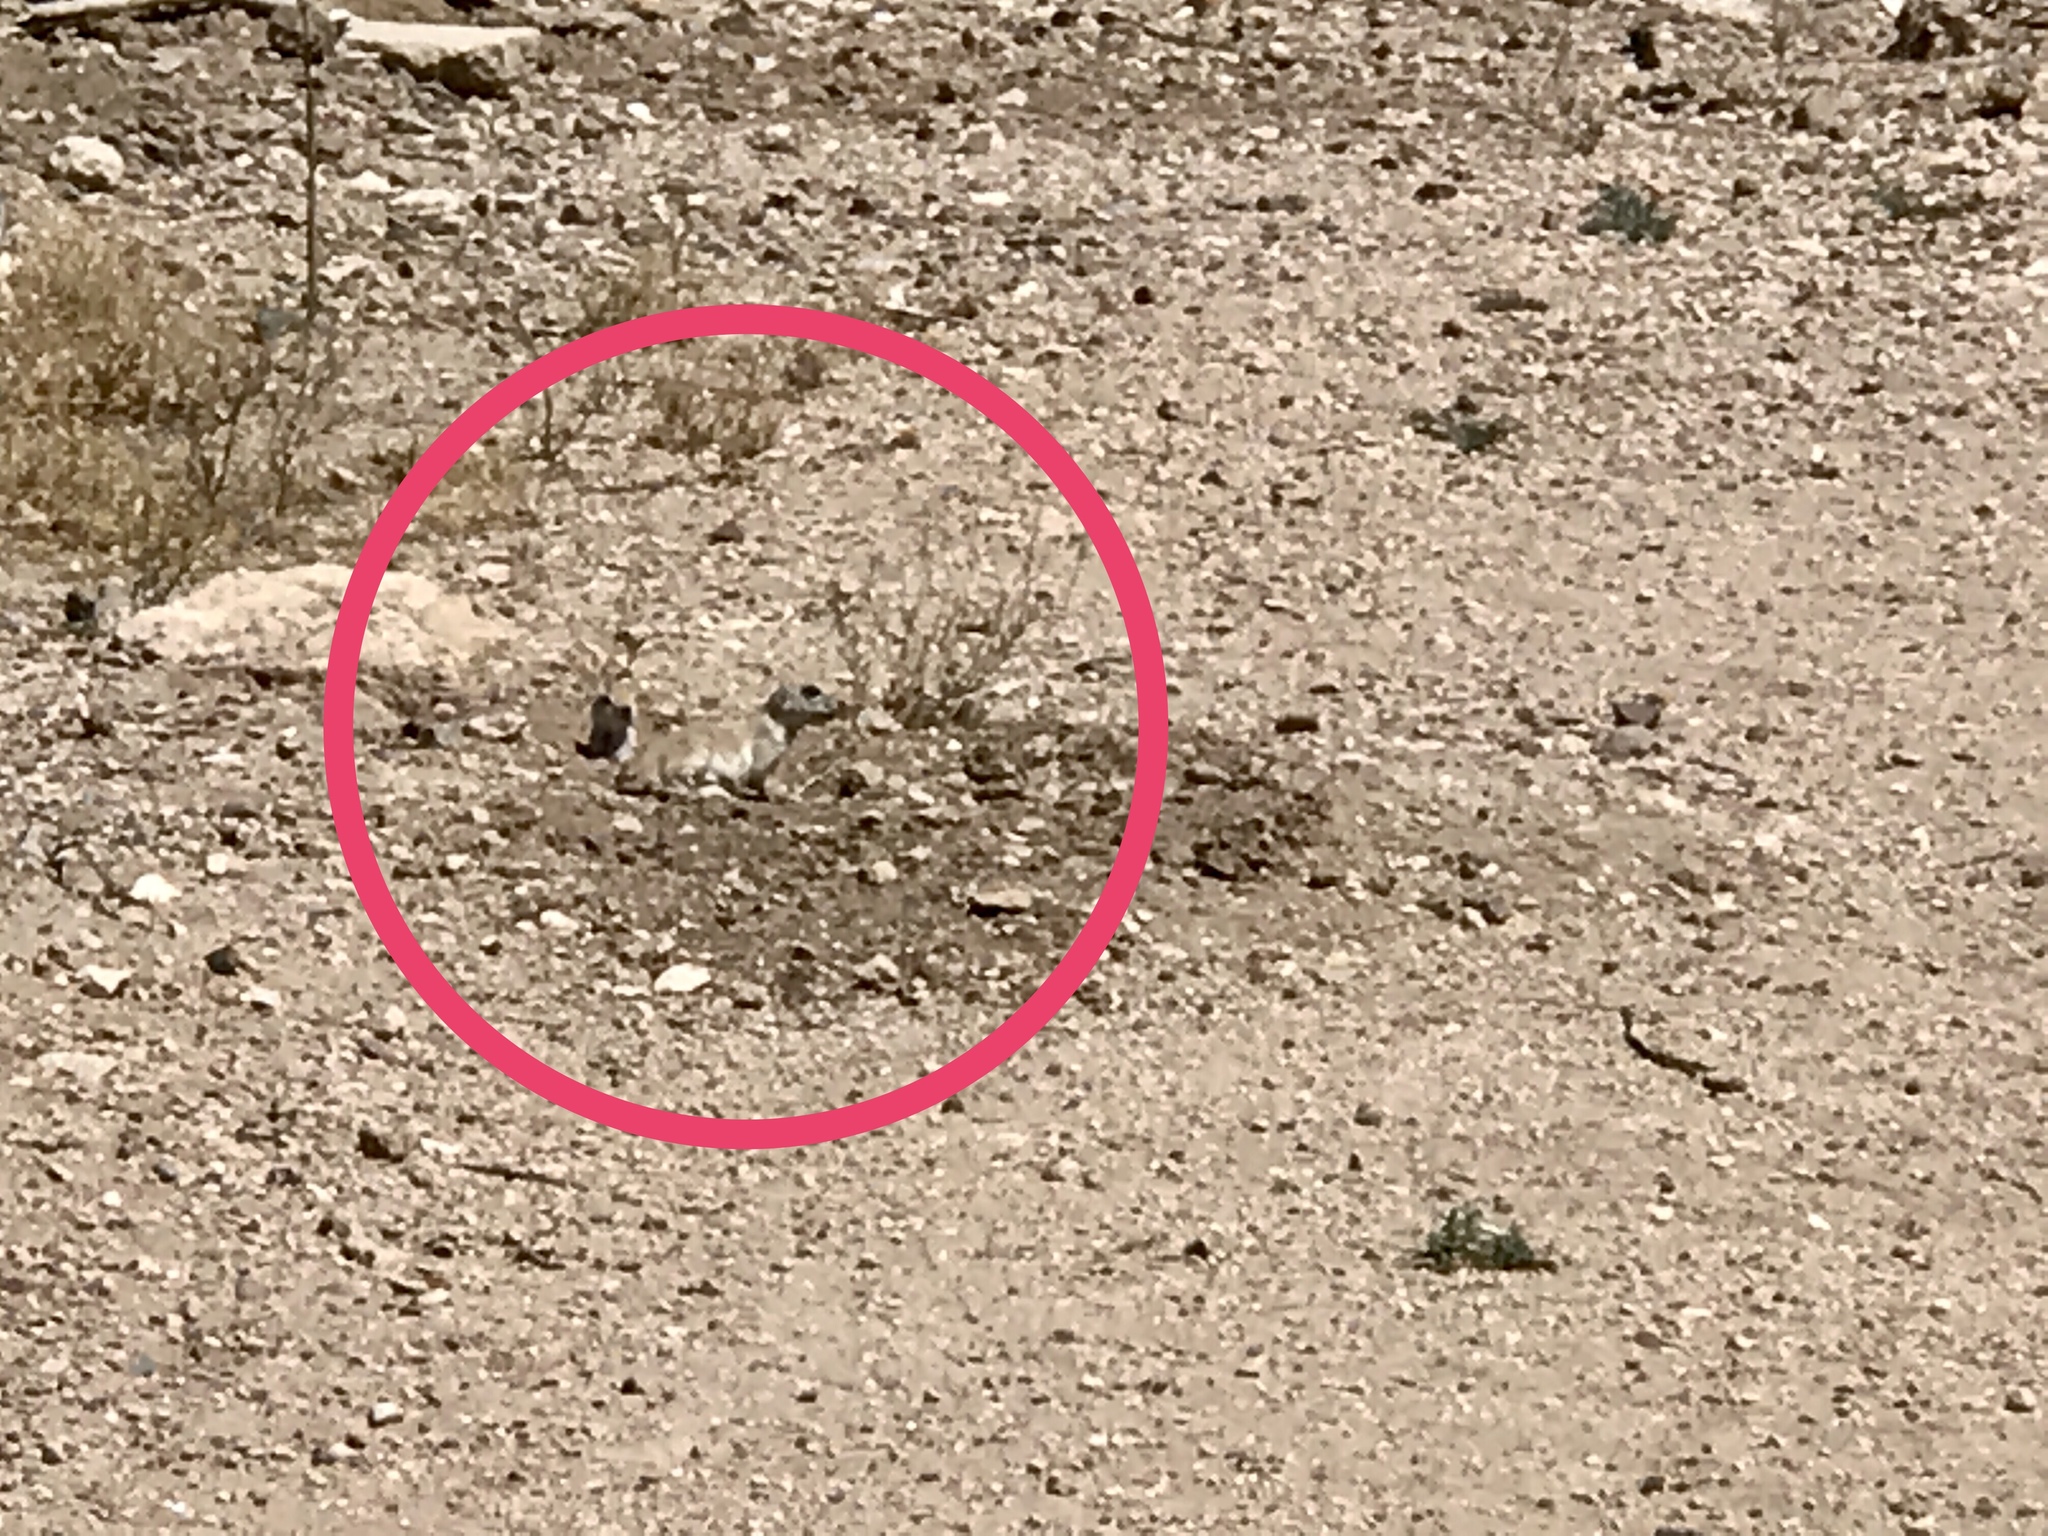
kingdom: Animalia
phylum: Chordata
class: Mammalia
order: Rodentia
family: Sciuridae
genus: Xerospermophilus
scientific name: Xerospermophilus tereticaudus
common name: Round-tailed ground squirrel
